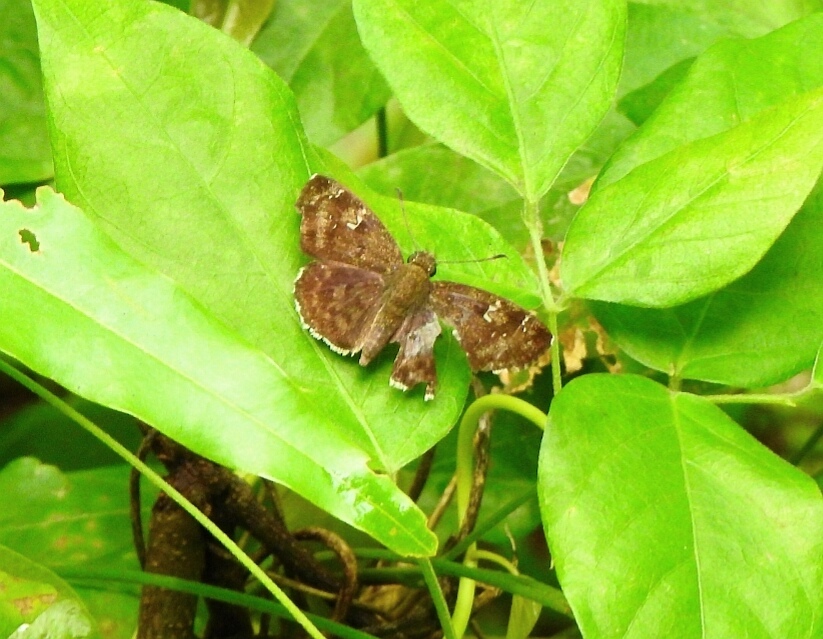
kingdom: Animalia
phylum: Arthropoda
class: Insecta
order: Lepidoptera
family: Hesperiidae
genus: Sarangesa
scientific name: Sarangesa dasahara
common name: Common small flat
